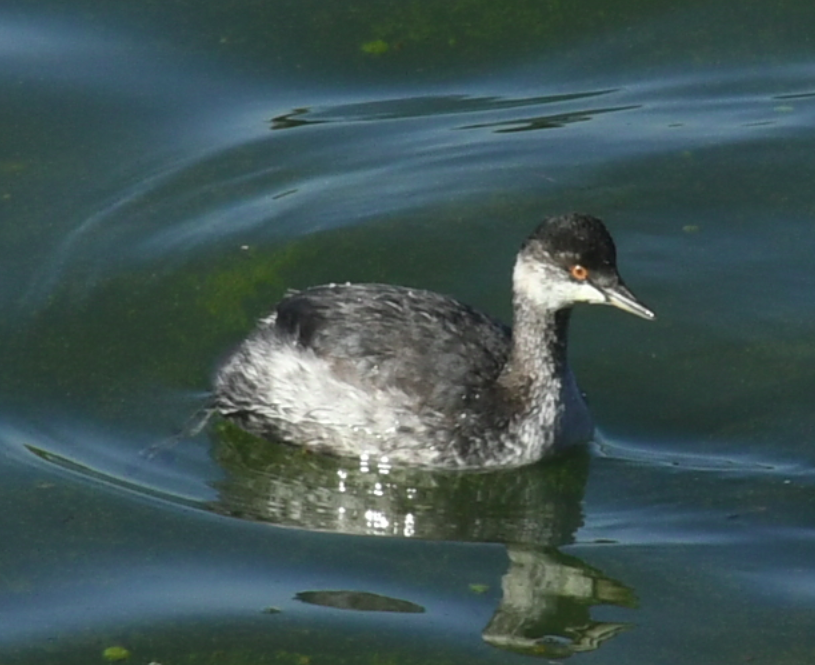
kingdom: Animalia
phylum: Chordata
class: Aves
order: Podicipediformes
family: Podicipedidae
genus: Podiceps
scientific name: Podiceps nigricollis
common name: Black-necked grebe
